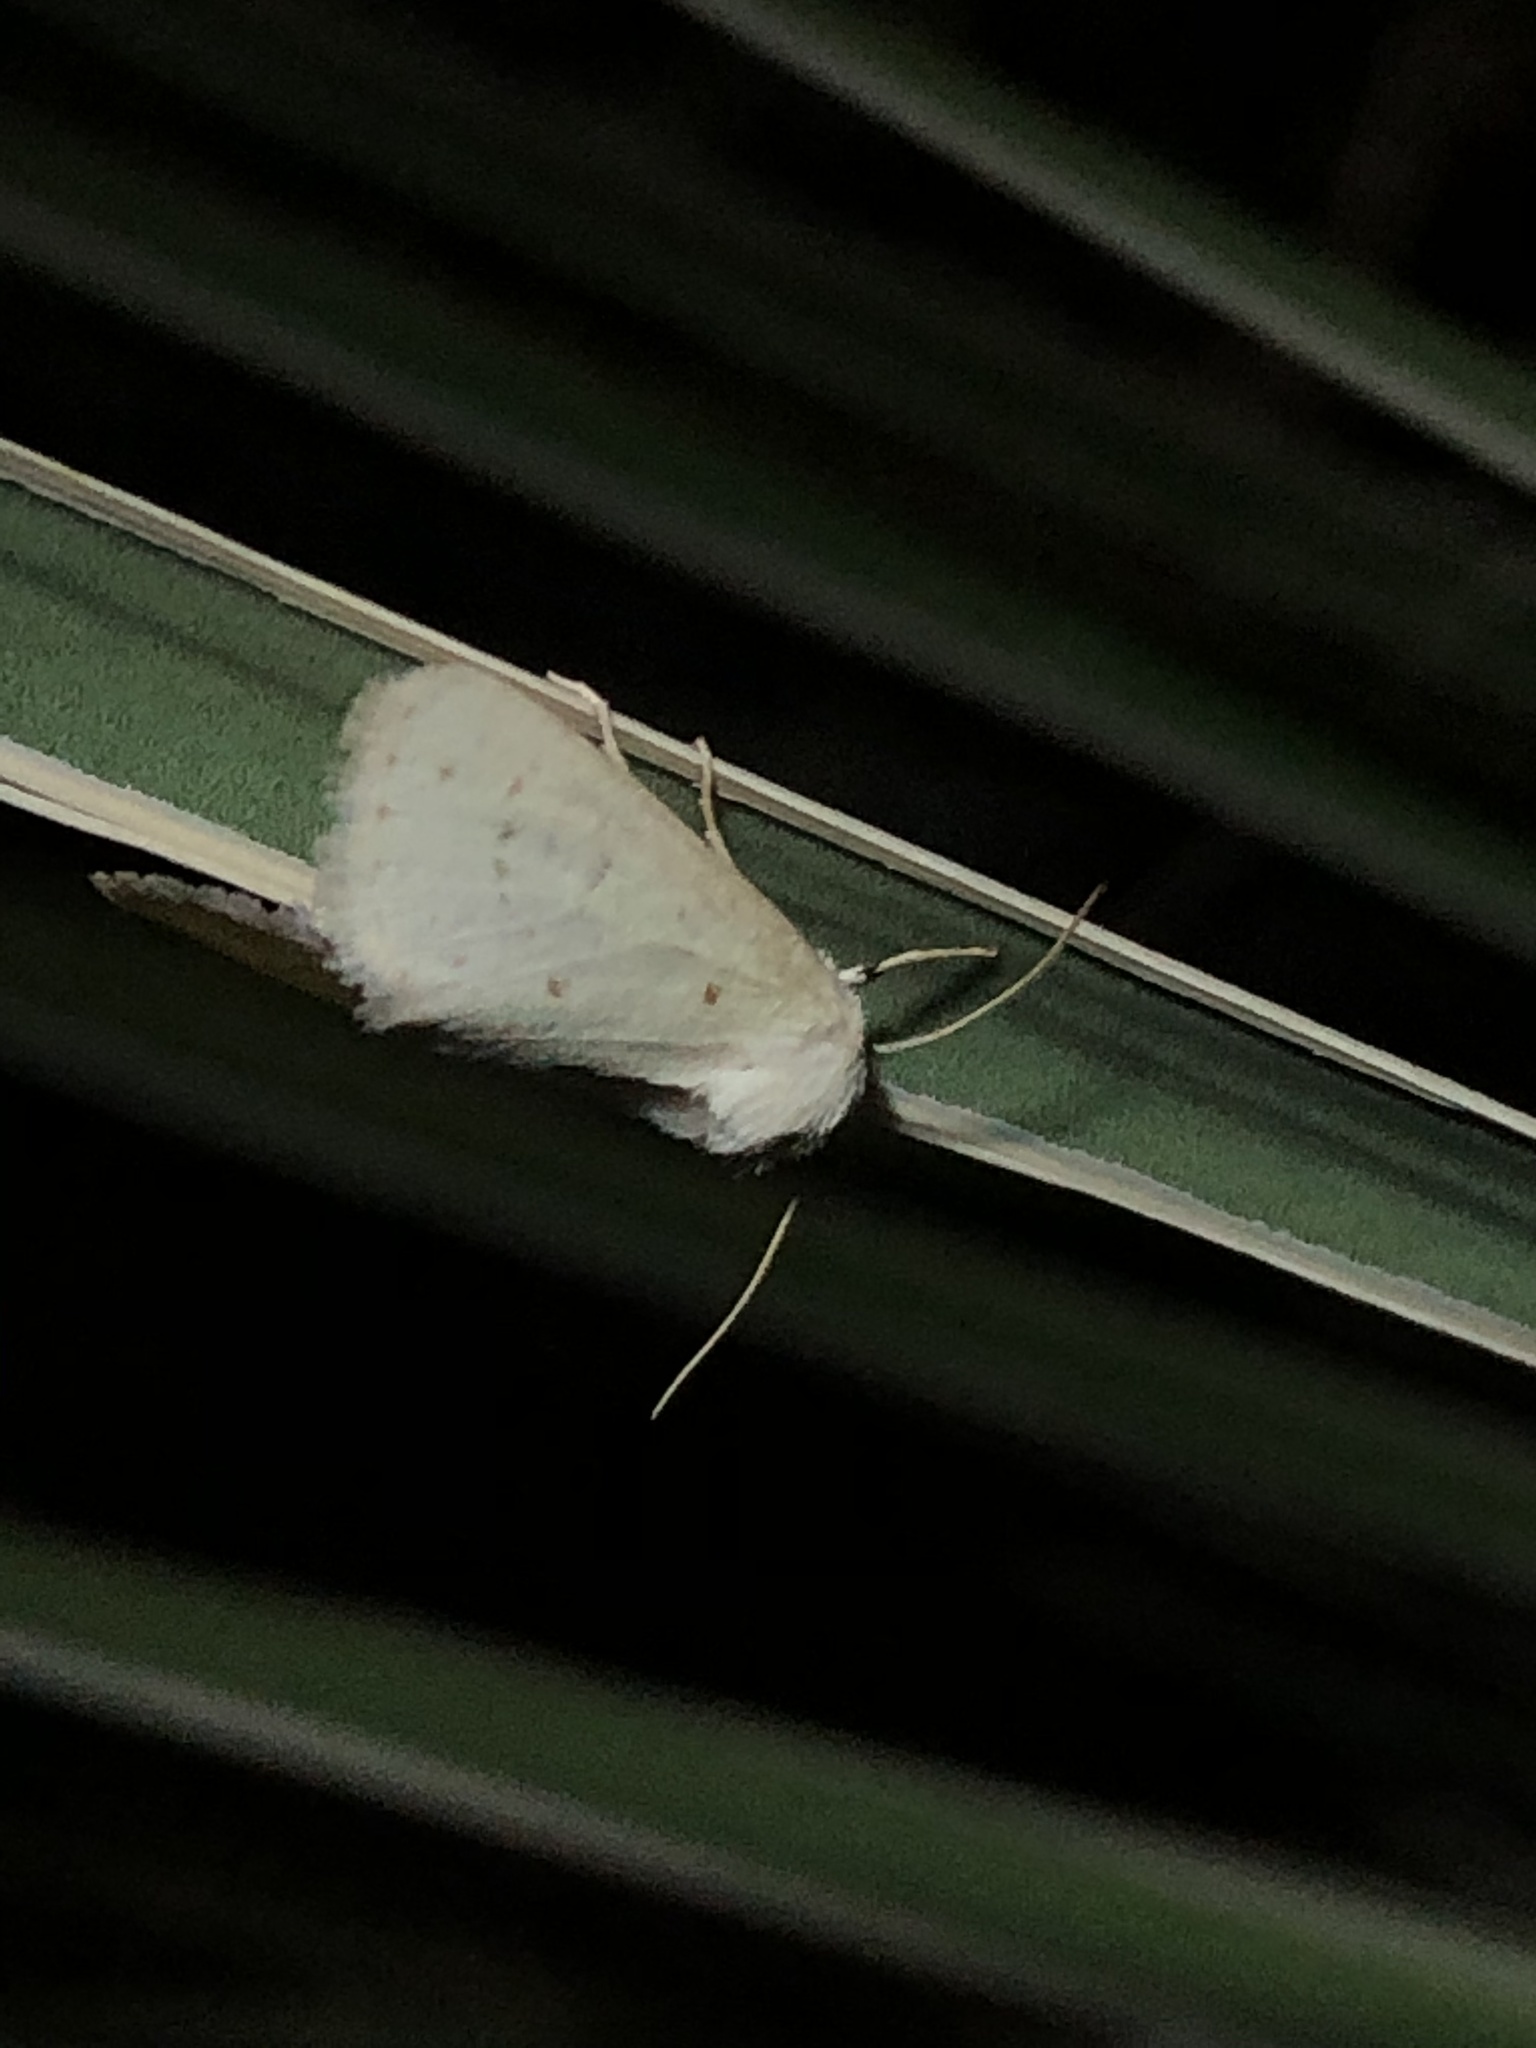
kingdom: Animalia
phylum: Arthropoda
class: Insecta
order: Lepidoptera
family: Noctuidae
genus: Schinia
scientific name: Schinia luxa
